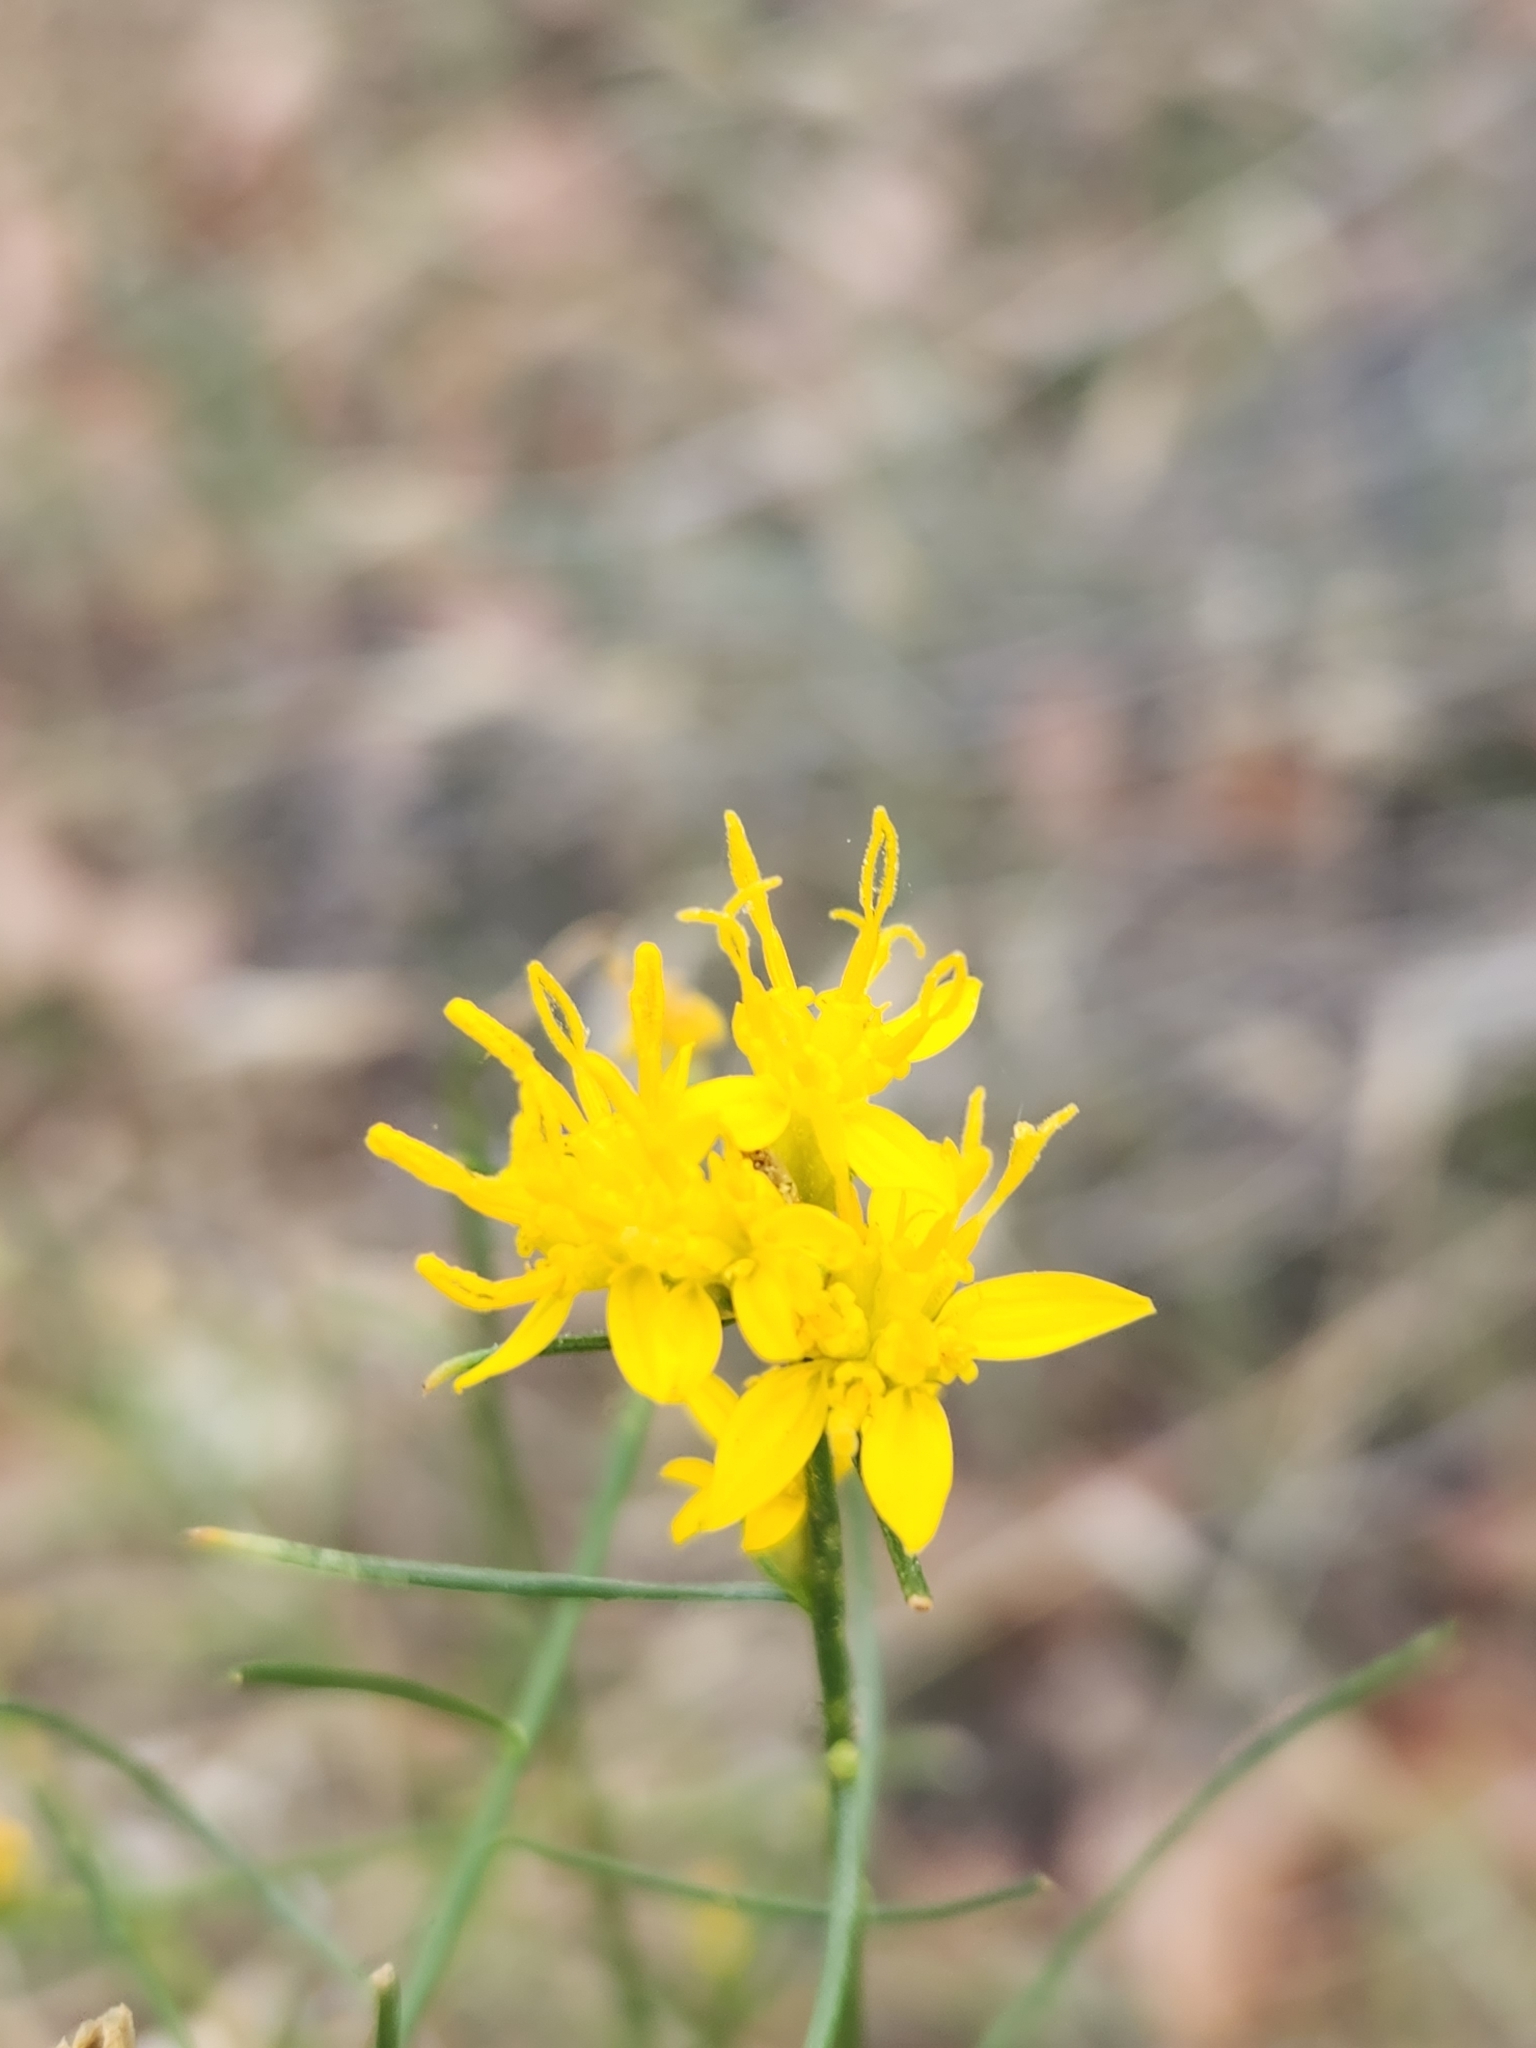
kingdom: Plantae
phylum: Tracheophyta
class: Magnoliopsida
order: Asterales
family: Asteraceae
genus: Gutierrezia
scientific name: Gutierrezia sarothrae
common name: Broom snakeweed
